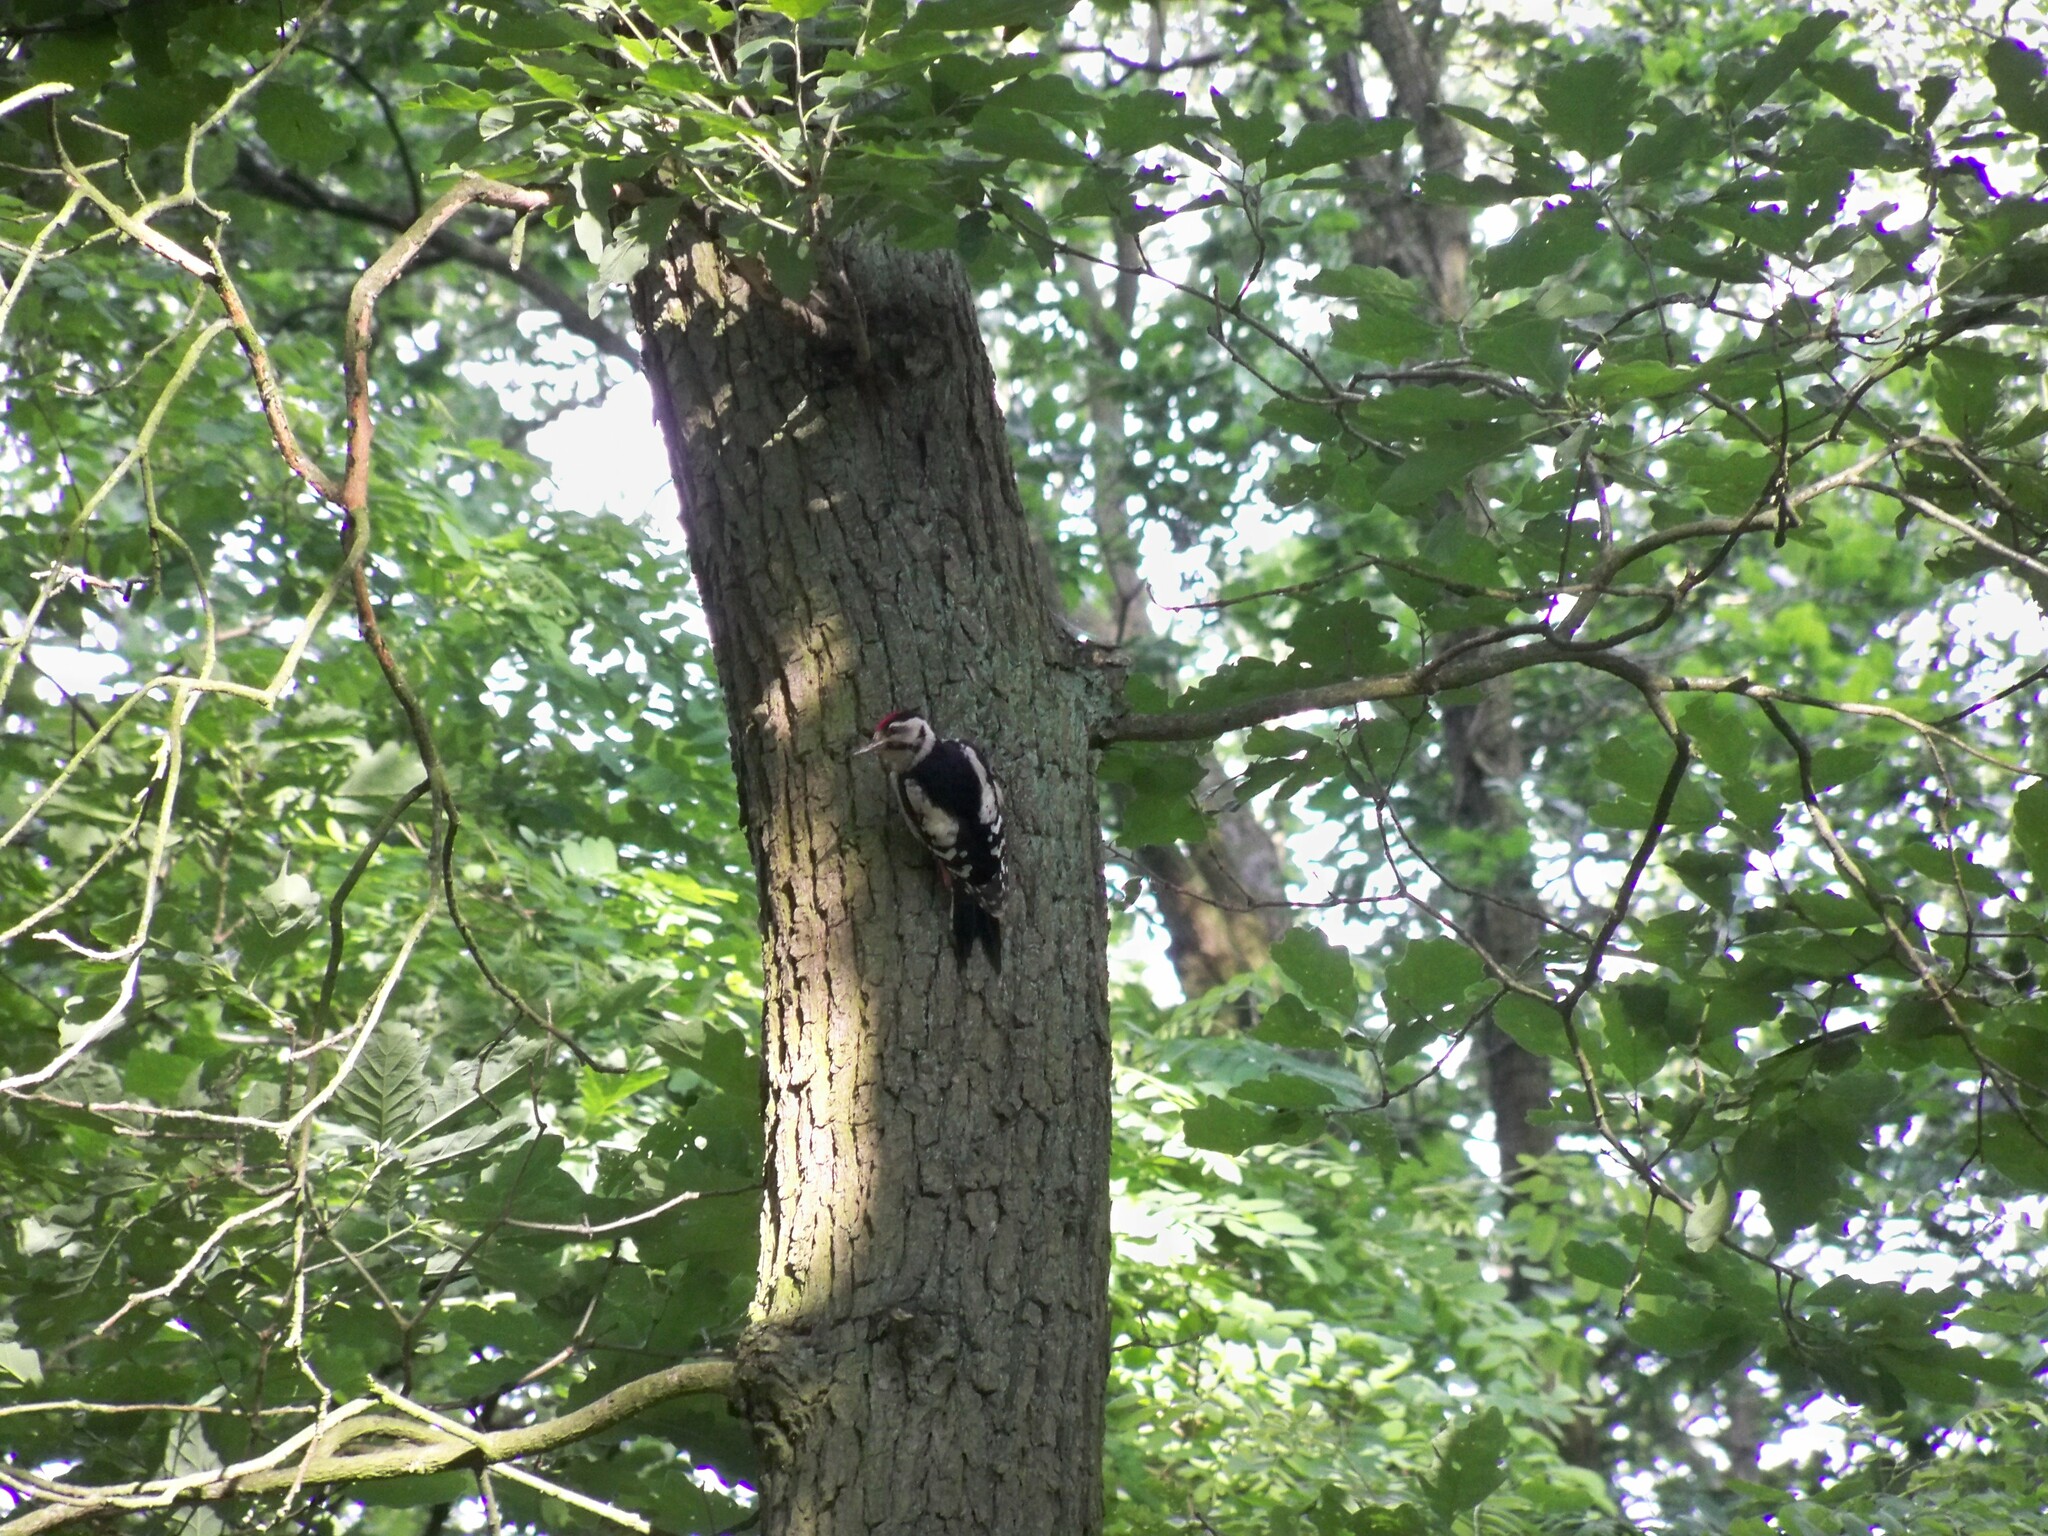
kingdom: Animalia
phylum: Chordata
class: Aves
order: Piciformes
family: Picidae
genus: Dendrocopos
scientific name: Dendrocopos syriacus
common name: Syrian woodpecker
